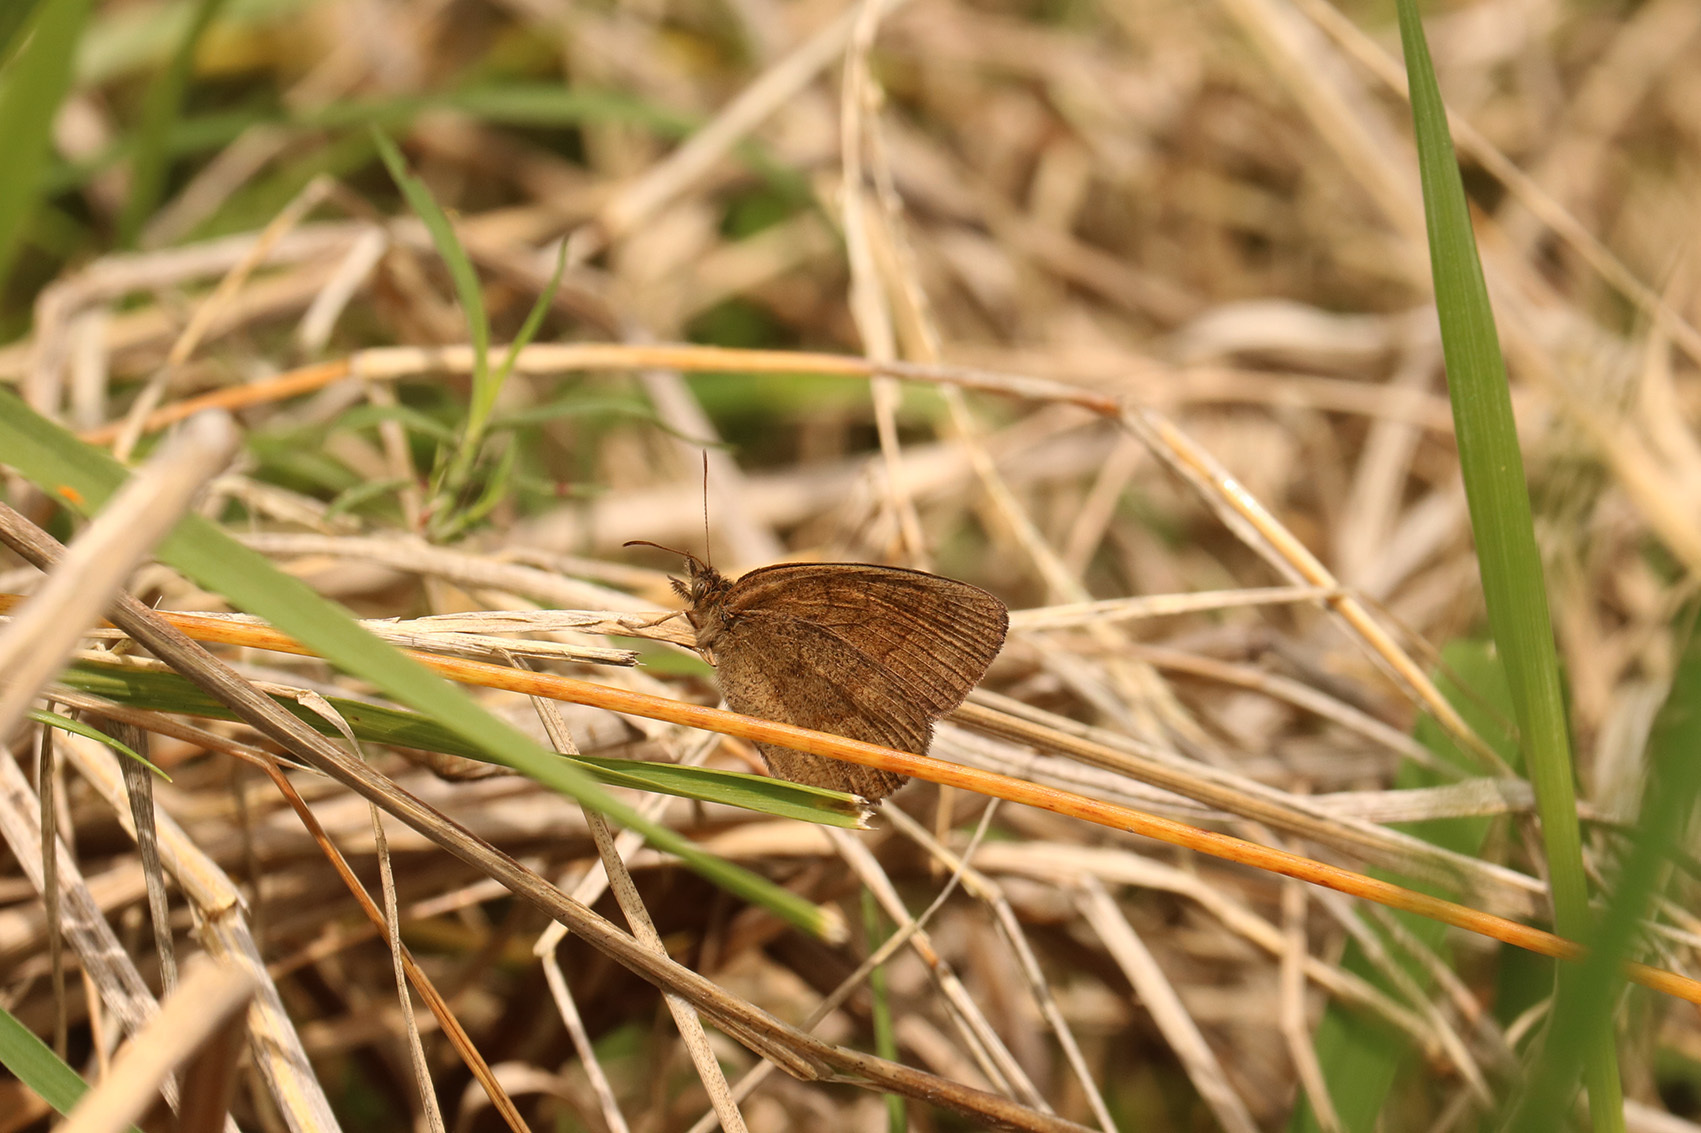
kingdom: Animalia
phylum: Arthropoda
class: Insecta
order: Lepidoptera
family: Nymphalidae
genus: Yphthimoides
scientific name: Yphthimoides celmis
